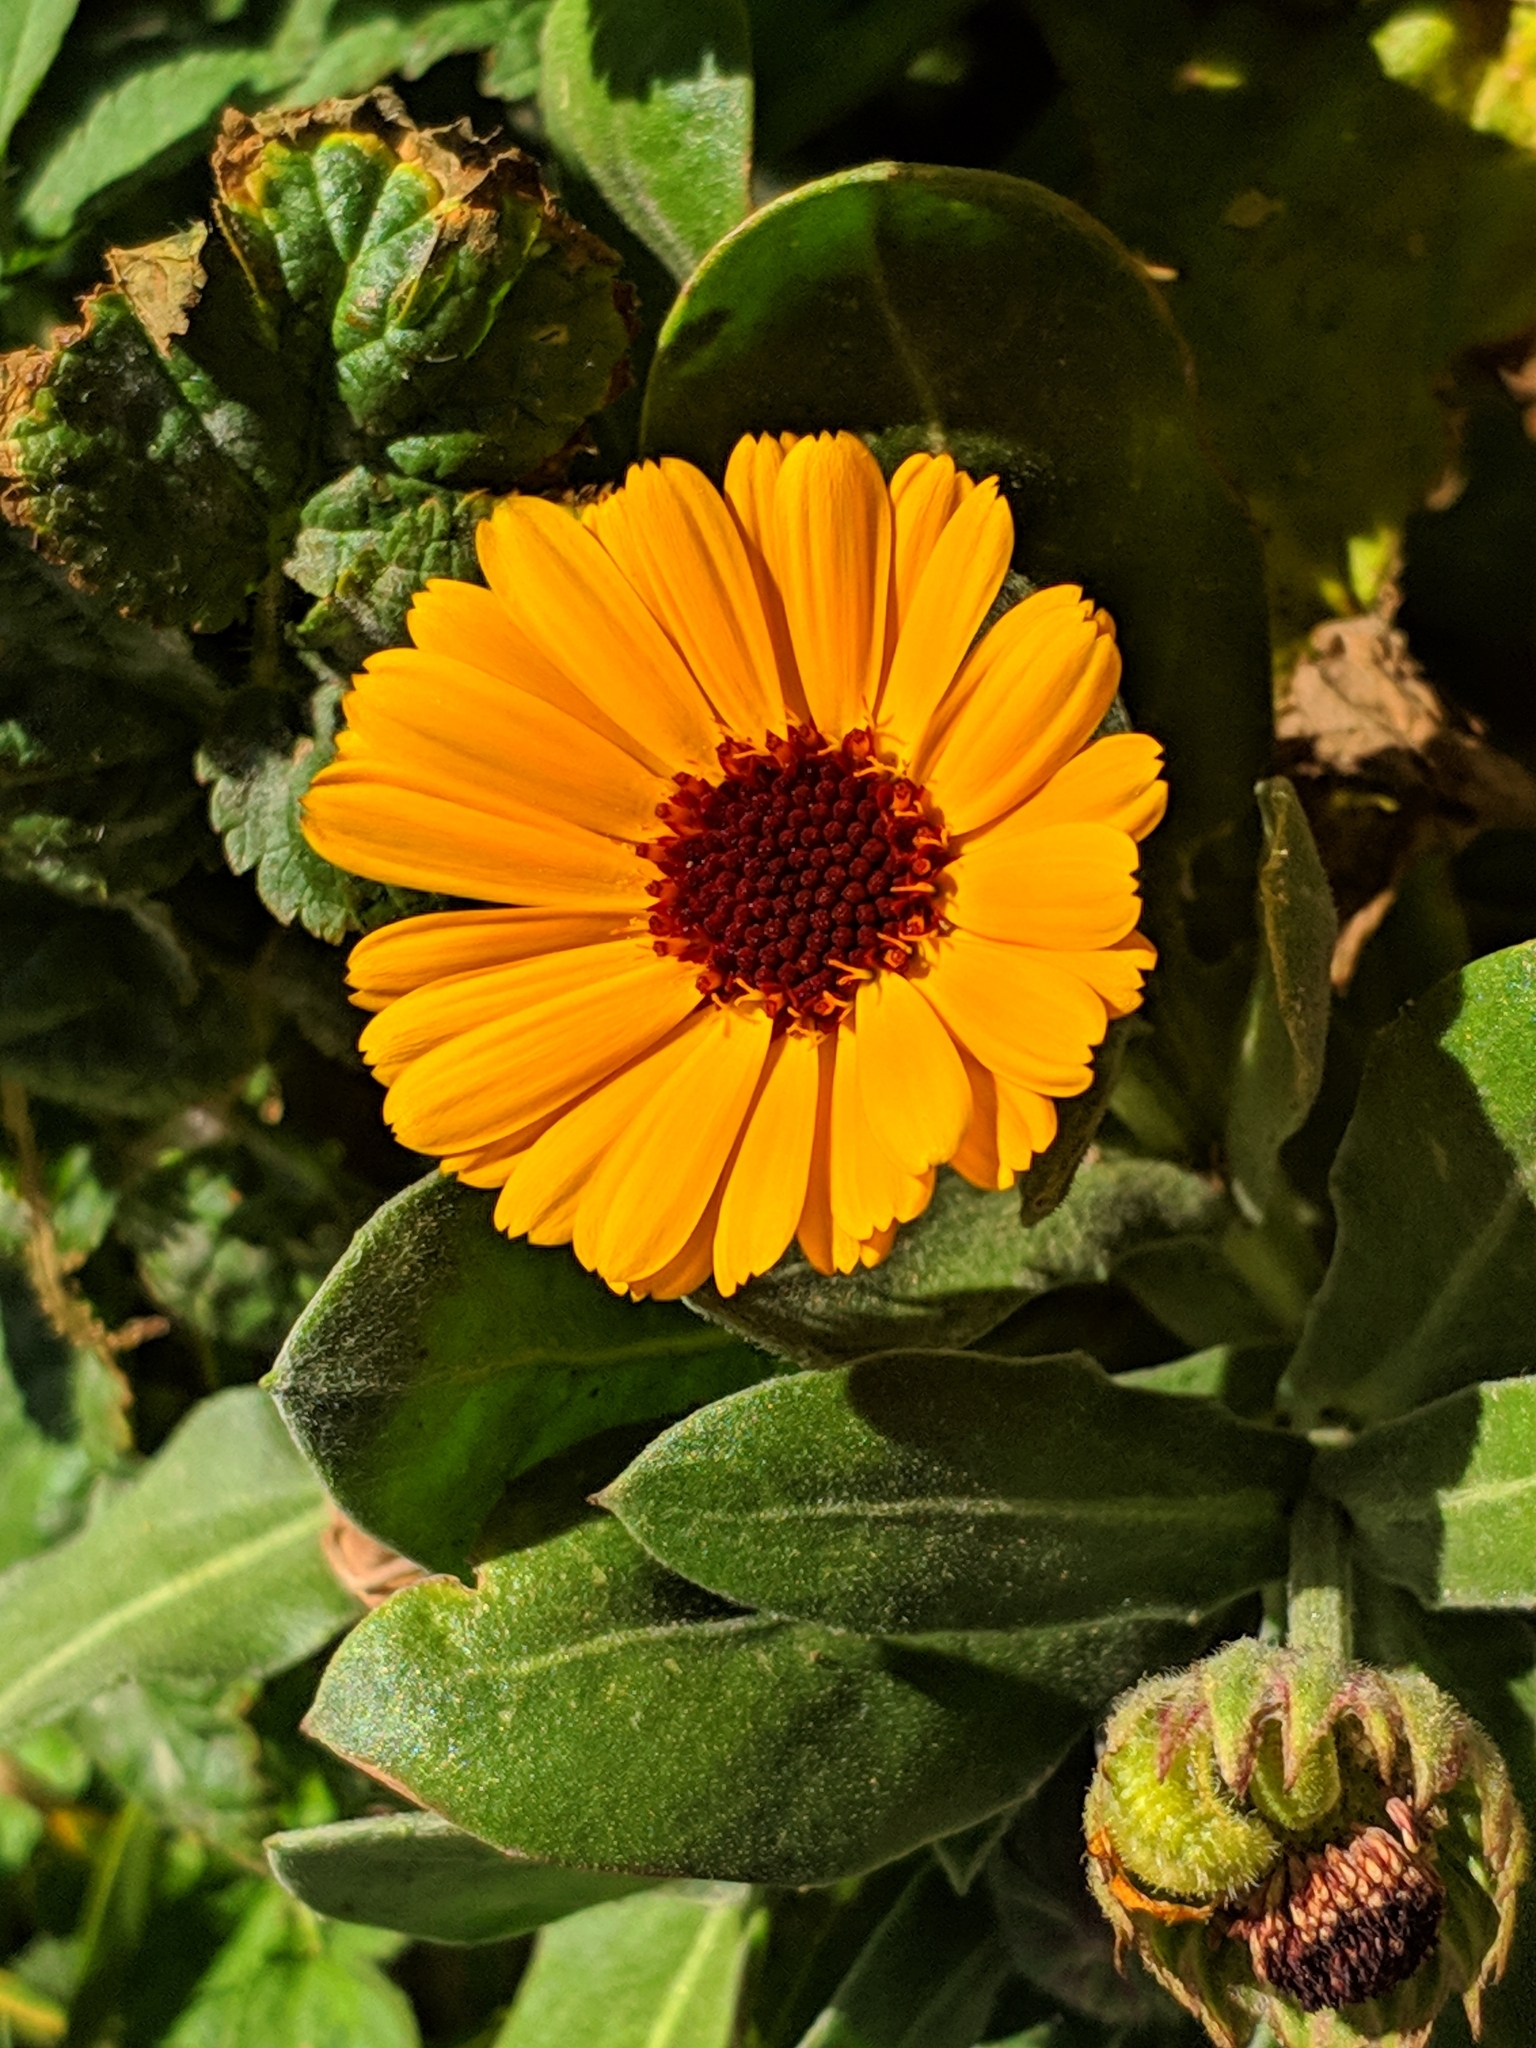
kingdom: Plantae
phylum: Tracheophyta
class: Magnoliopsida
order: Asterales
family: Asteraceae
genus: Calendula
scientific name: Calendula officinalis
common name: Pot marigold
